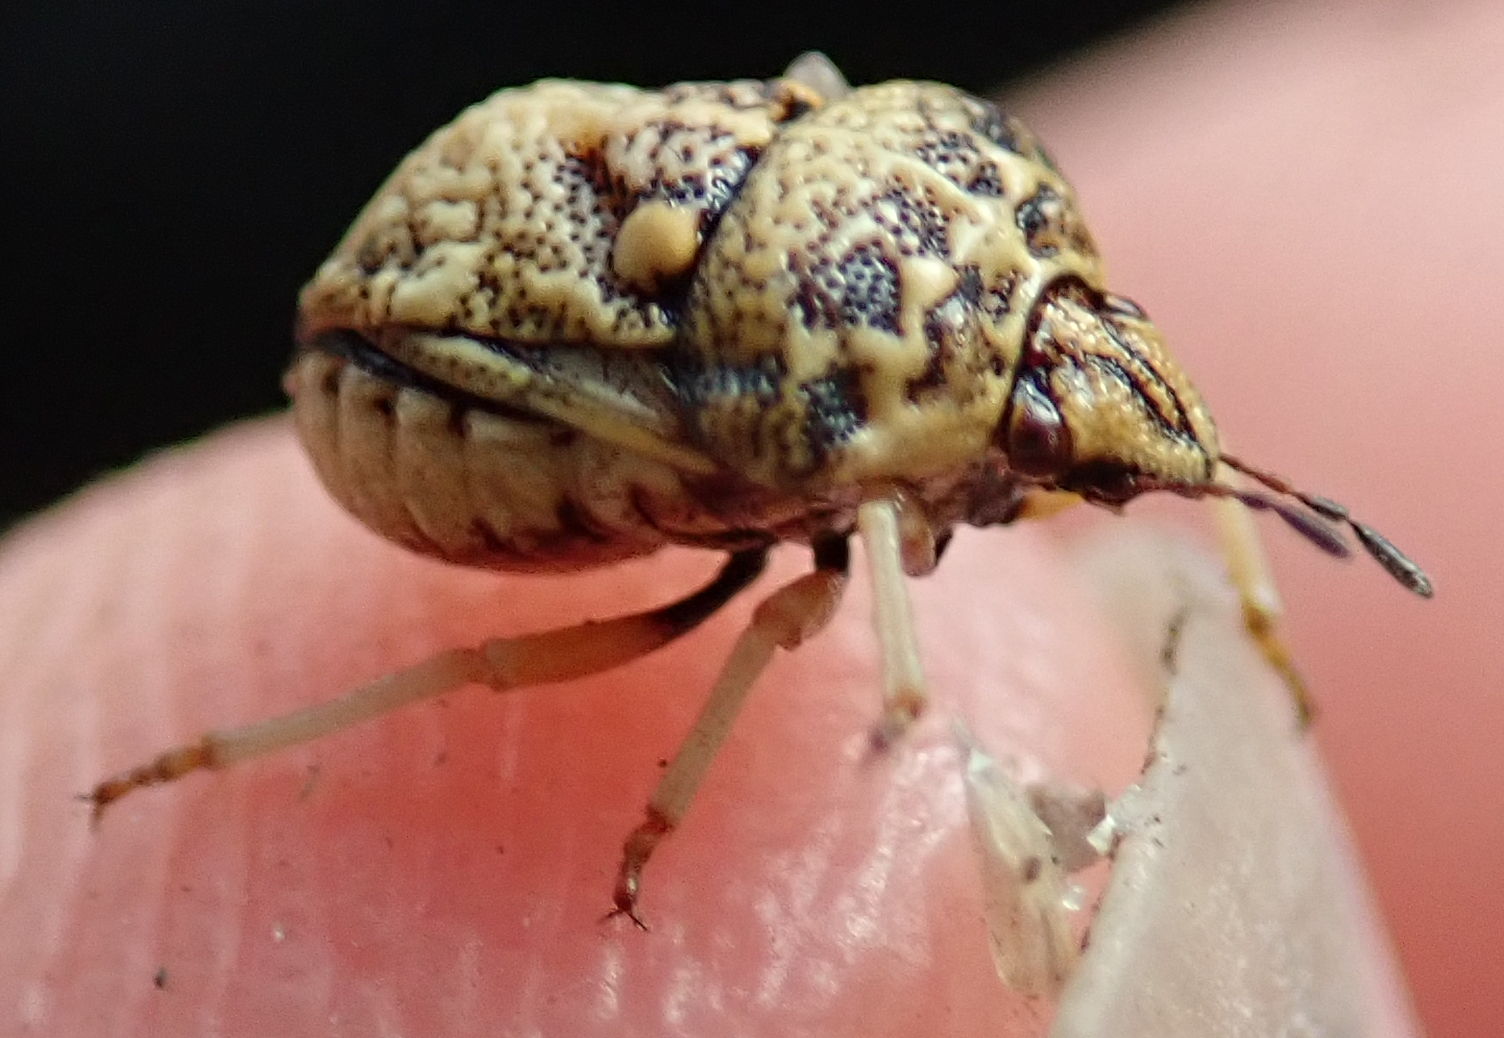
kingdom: Animalia
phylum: Arthropoda
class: Insecta
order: Hemiptera
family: Pentatomidae
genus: Bolbocoris
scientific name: Bolbocoris rufus
